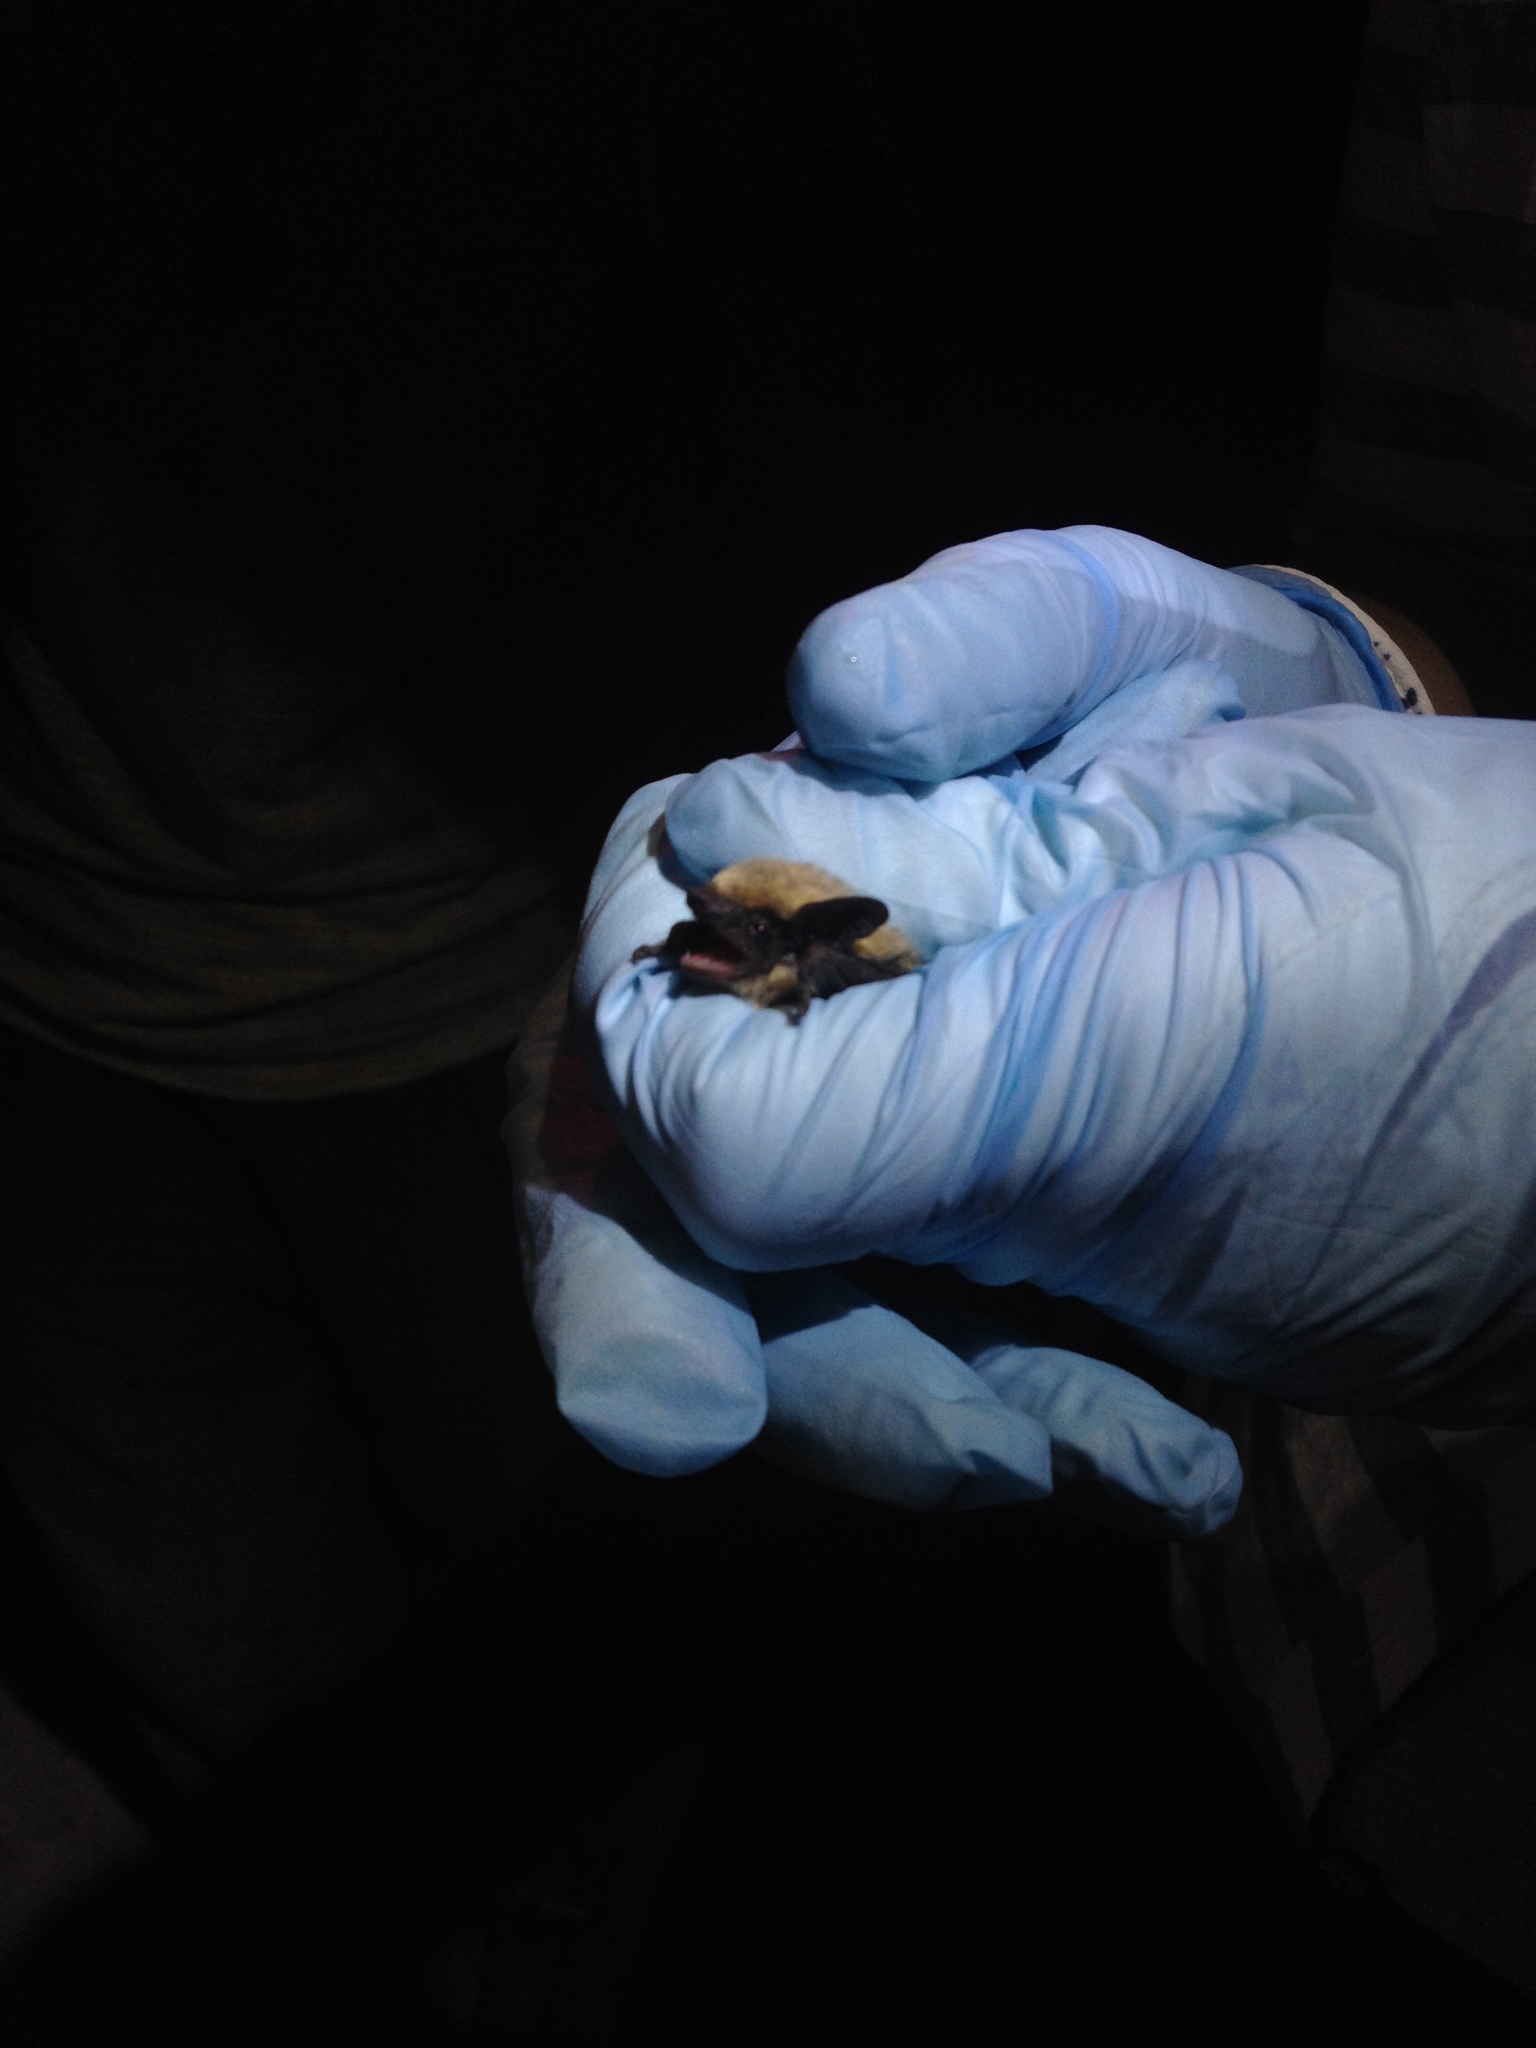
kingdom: Animalia
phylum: Chordata
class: Mammalia
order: Chiroptera
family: Vespertilionidae
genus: Parastrellus
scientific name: Parastrellus hesperus
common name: Canyon bat
